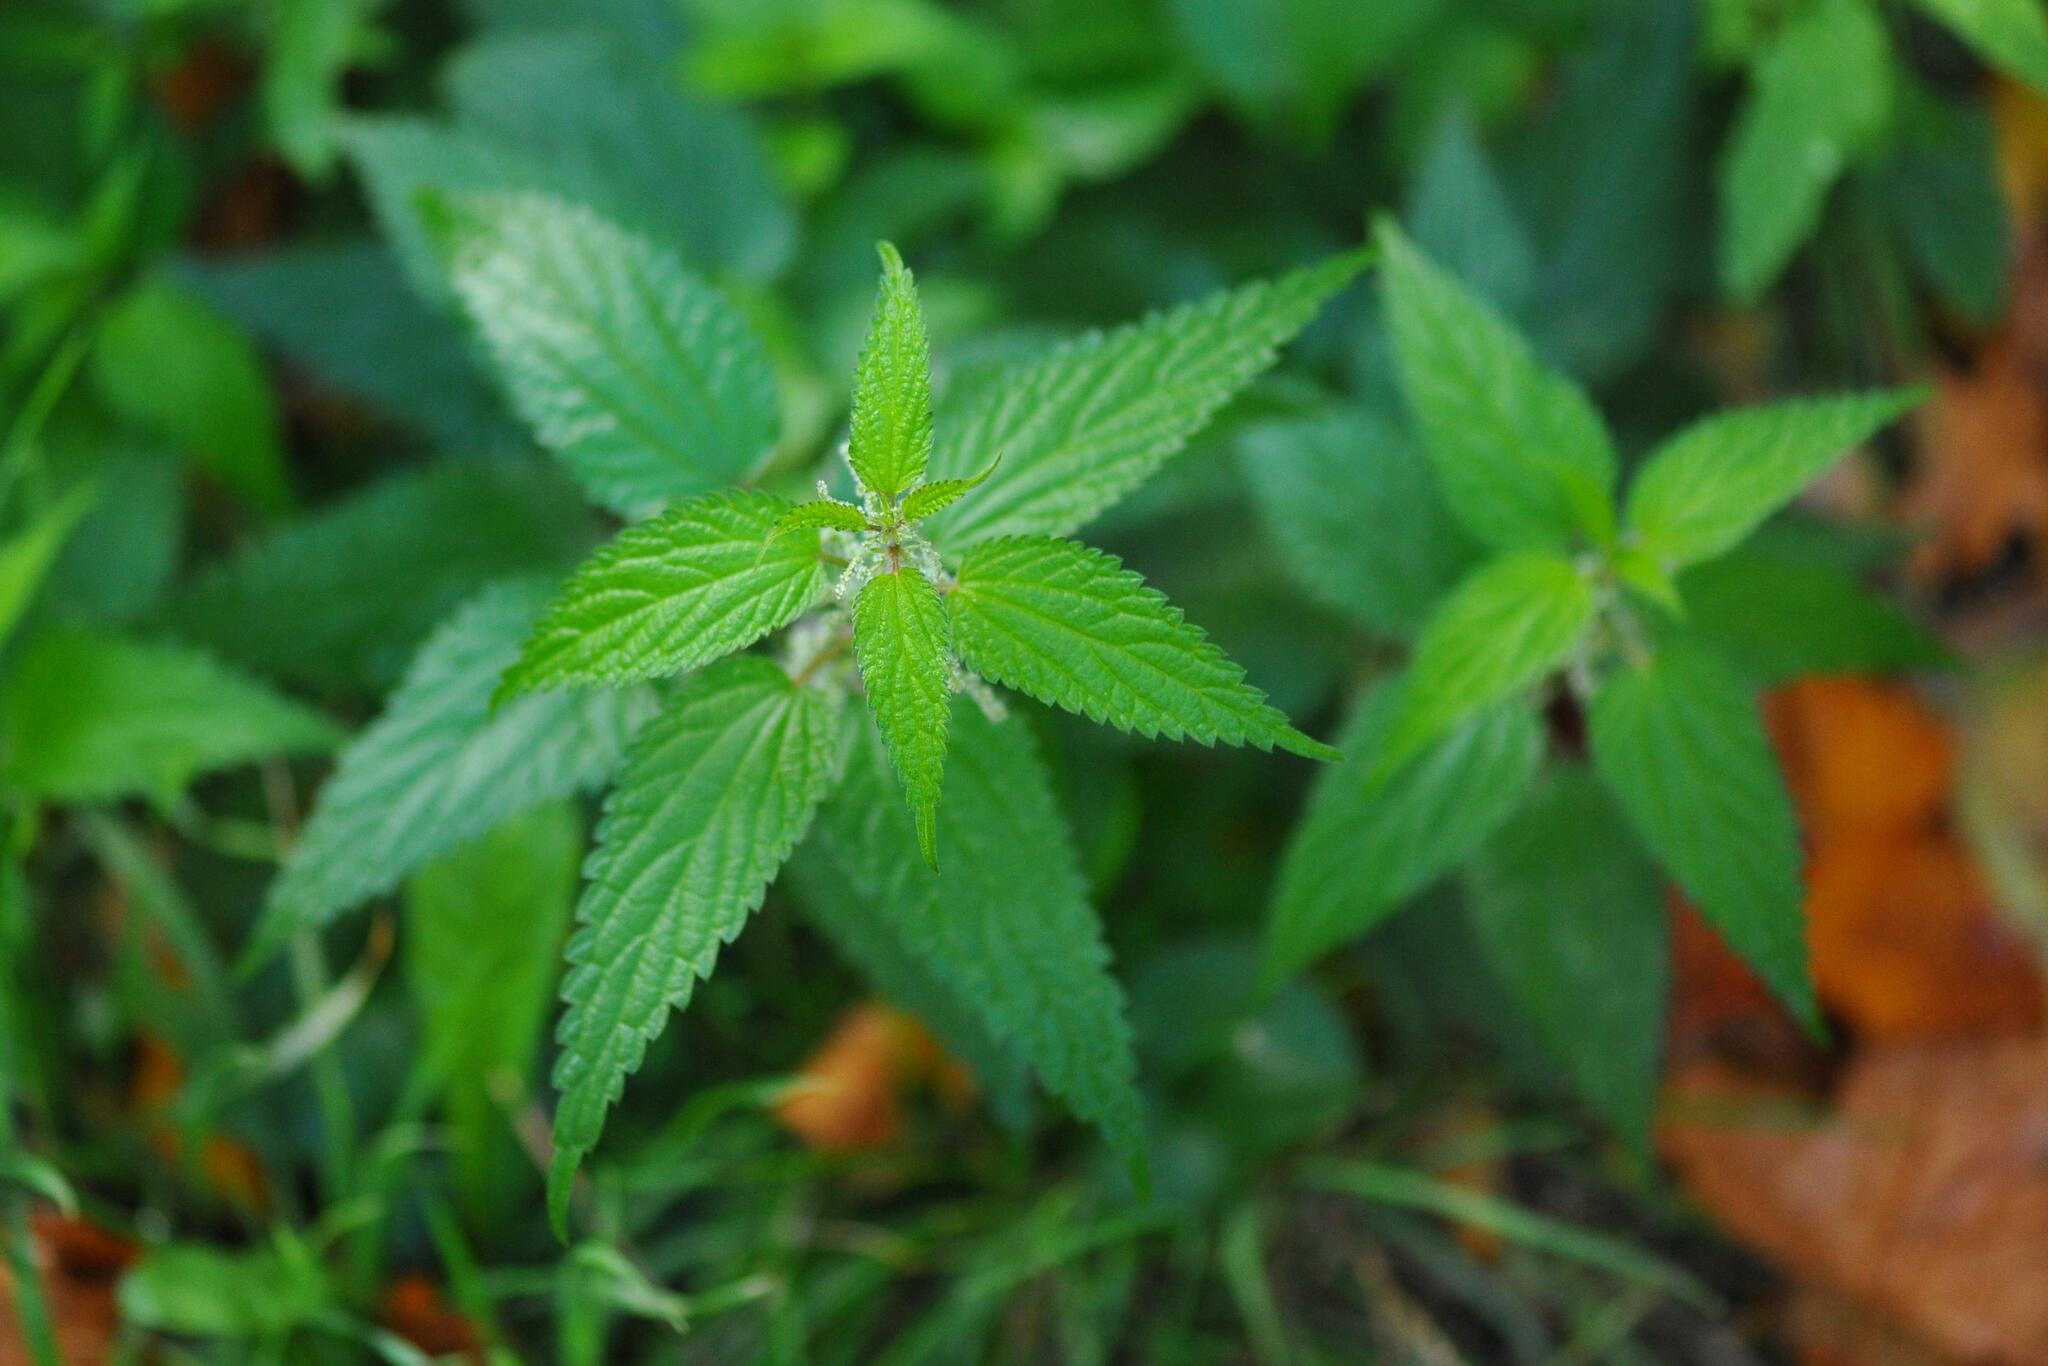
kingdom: Plantae
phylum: Tracheophyta
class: Magnoliopsida
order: Rosales
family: Urticaceae
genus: Urtica
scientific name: Urtica dioica
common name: Common nettle
